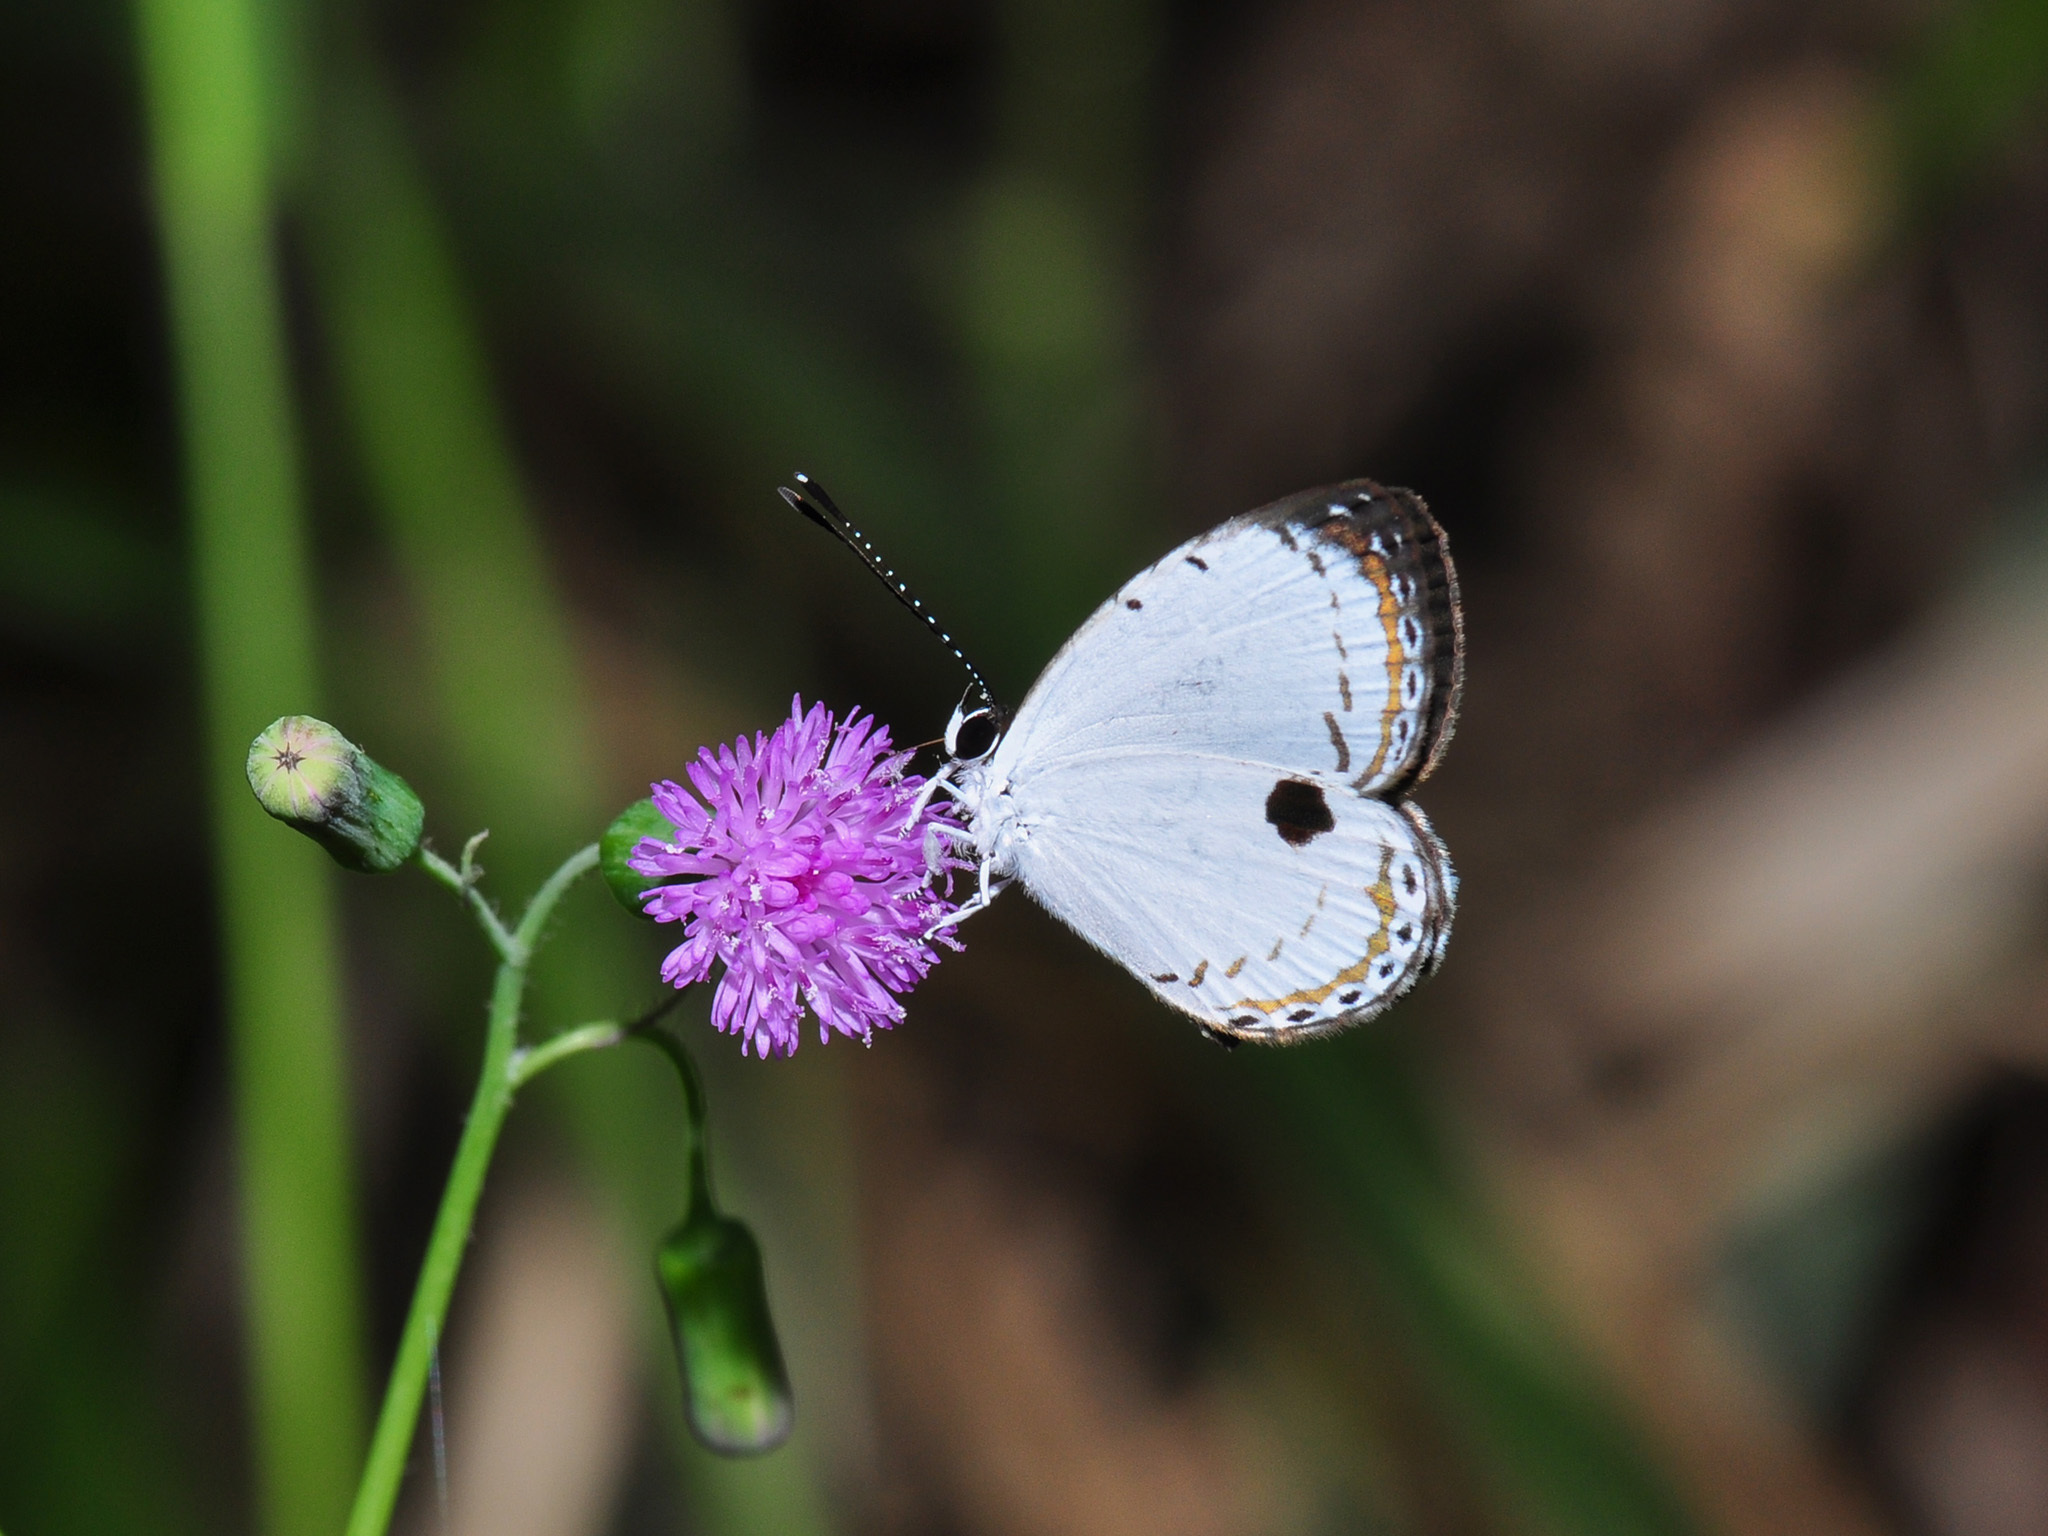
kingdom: Animalia
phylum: Arthropoda
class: Insecta
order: Lepidoptera
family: Lycaenidae
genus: Pithecops
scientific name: Pithecops corvus
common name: Forest quaker
